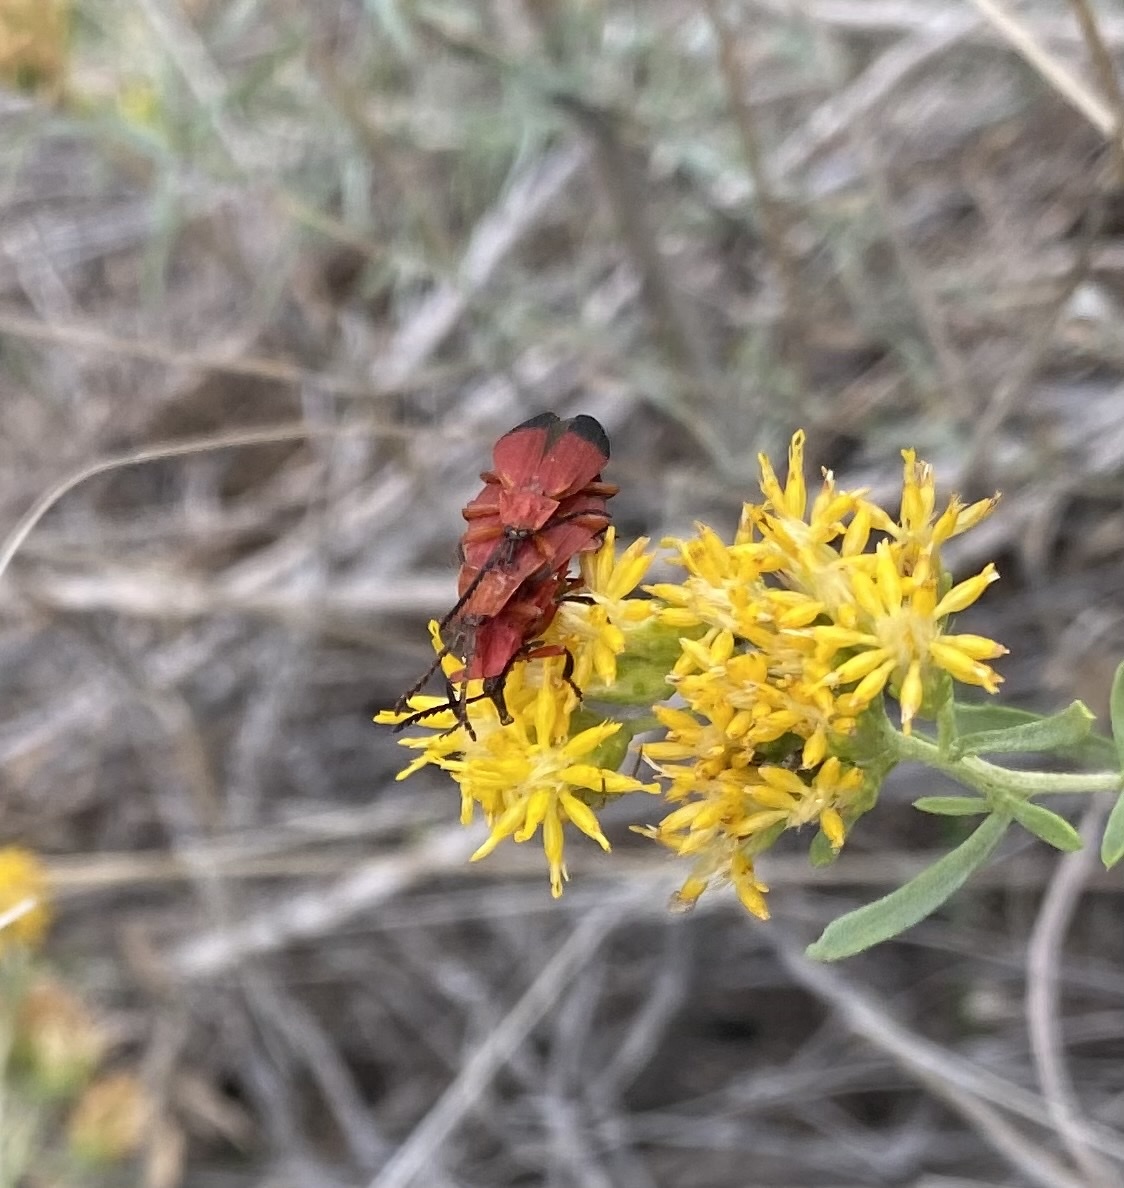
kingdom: Animalia
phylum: Arthropoda
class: Insecta
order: Coleoptera
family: Lycidae
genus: Lycus
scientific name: Lycus sanguineus
